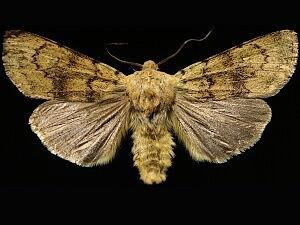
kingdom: Animalia
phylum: Arthropoda
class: Insecta
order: Lepidoptera
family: Noctuidae
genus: Euxoa
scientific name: Euxoa vallus
